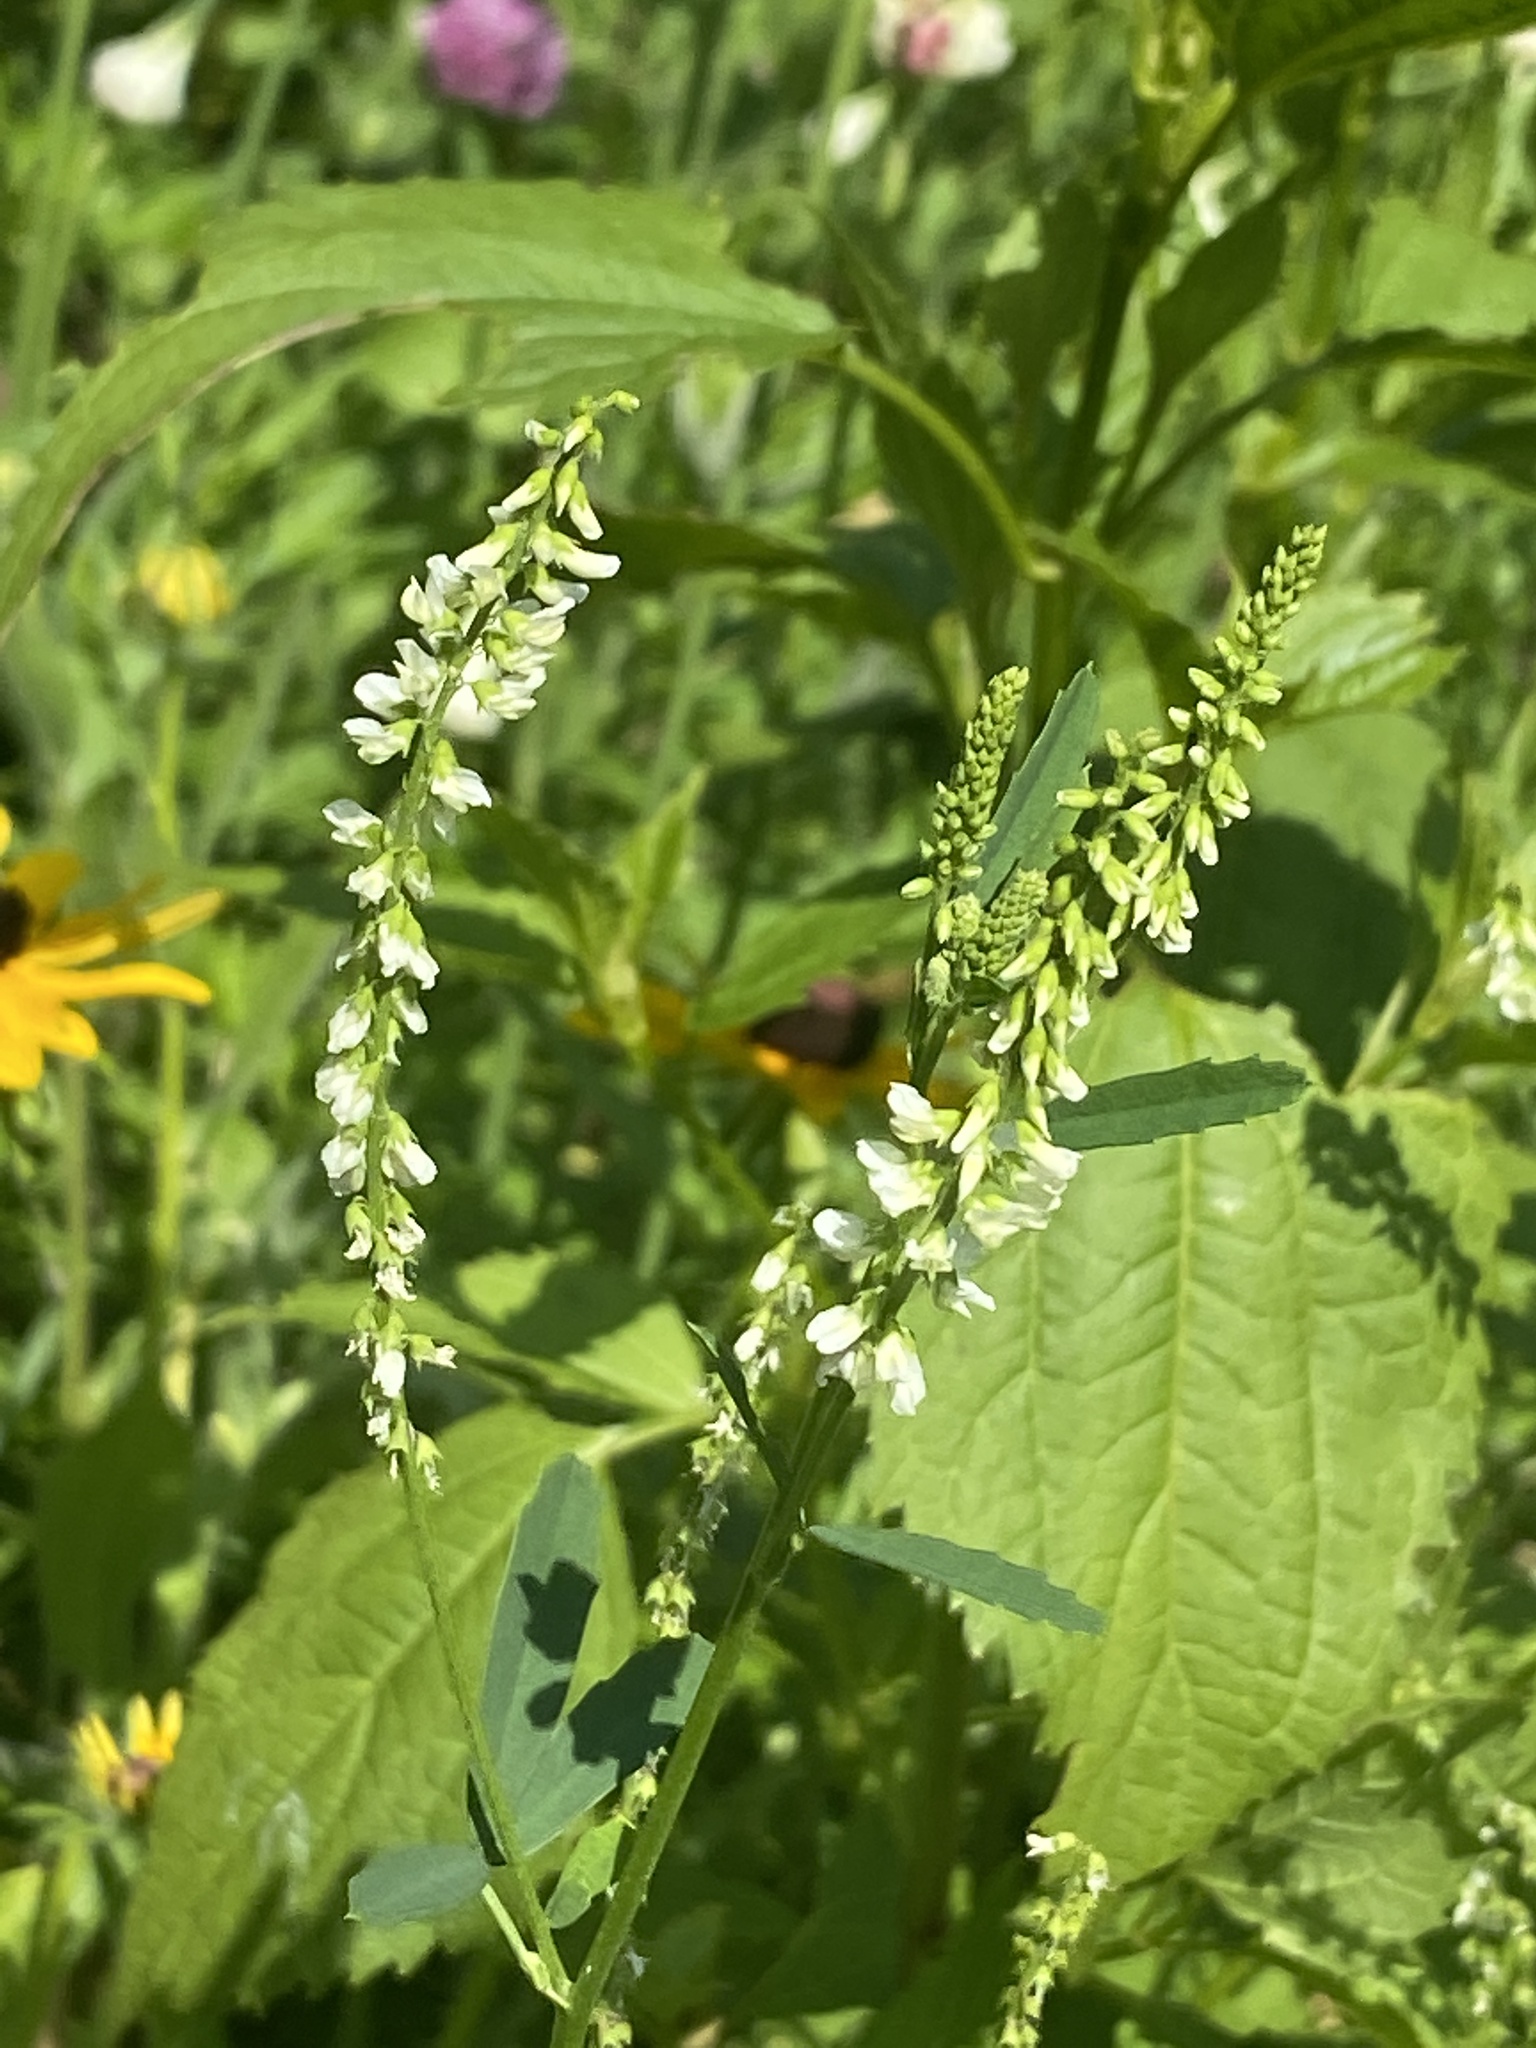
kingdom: Plantae
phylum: Tracheophyta
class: Magnoliopsida
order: Fabales
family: Fabaceae
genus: Melilotus
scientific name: Melilotus albus
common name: White melilot
